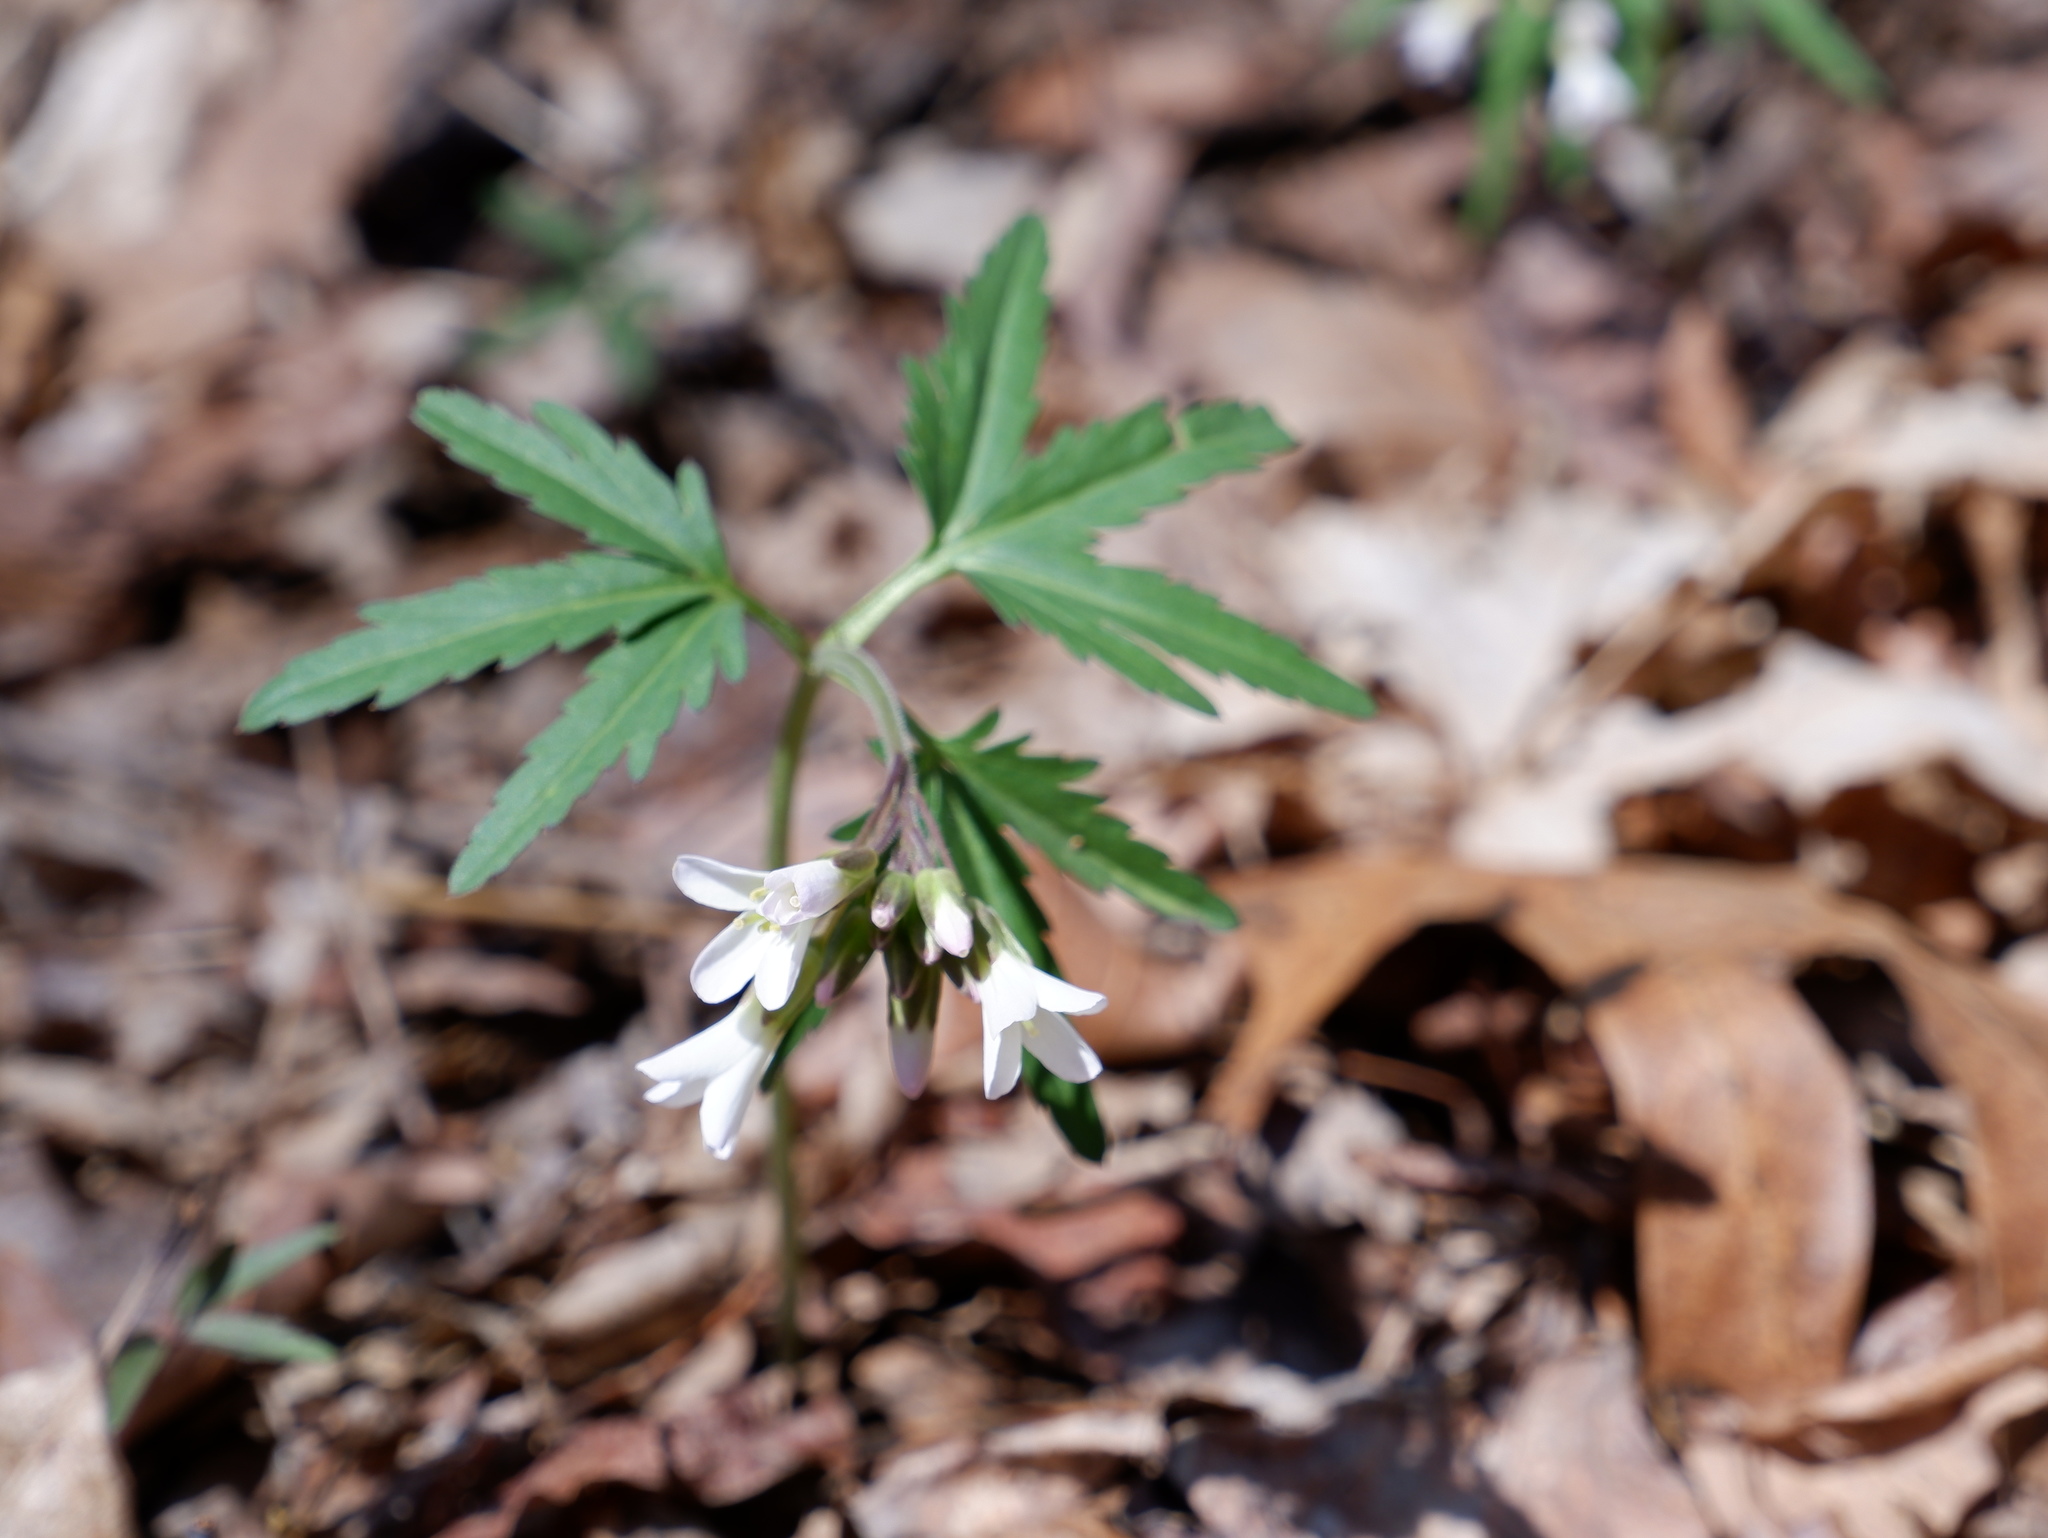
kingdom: Plantae
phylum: Tracheophyta
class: Magnoliopsida
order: Brassicales
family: Brassicaceae
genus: Cardamine
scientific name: Cardamine concatenata
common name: Cut-leaf toothcup
